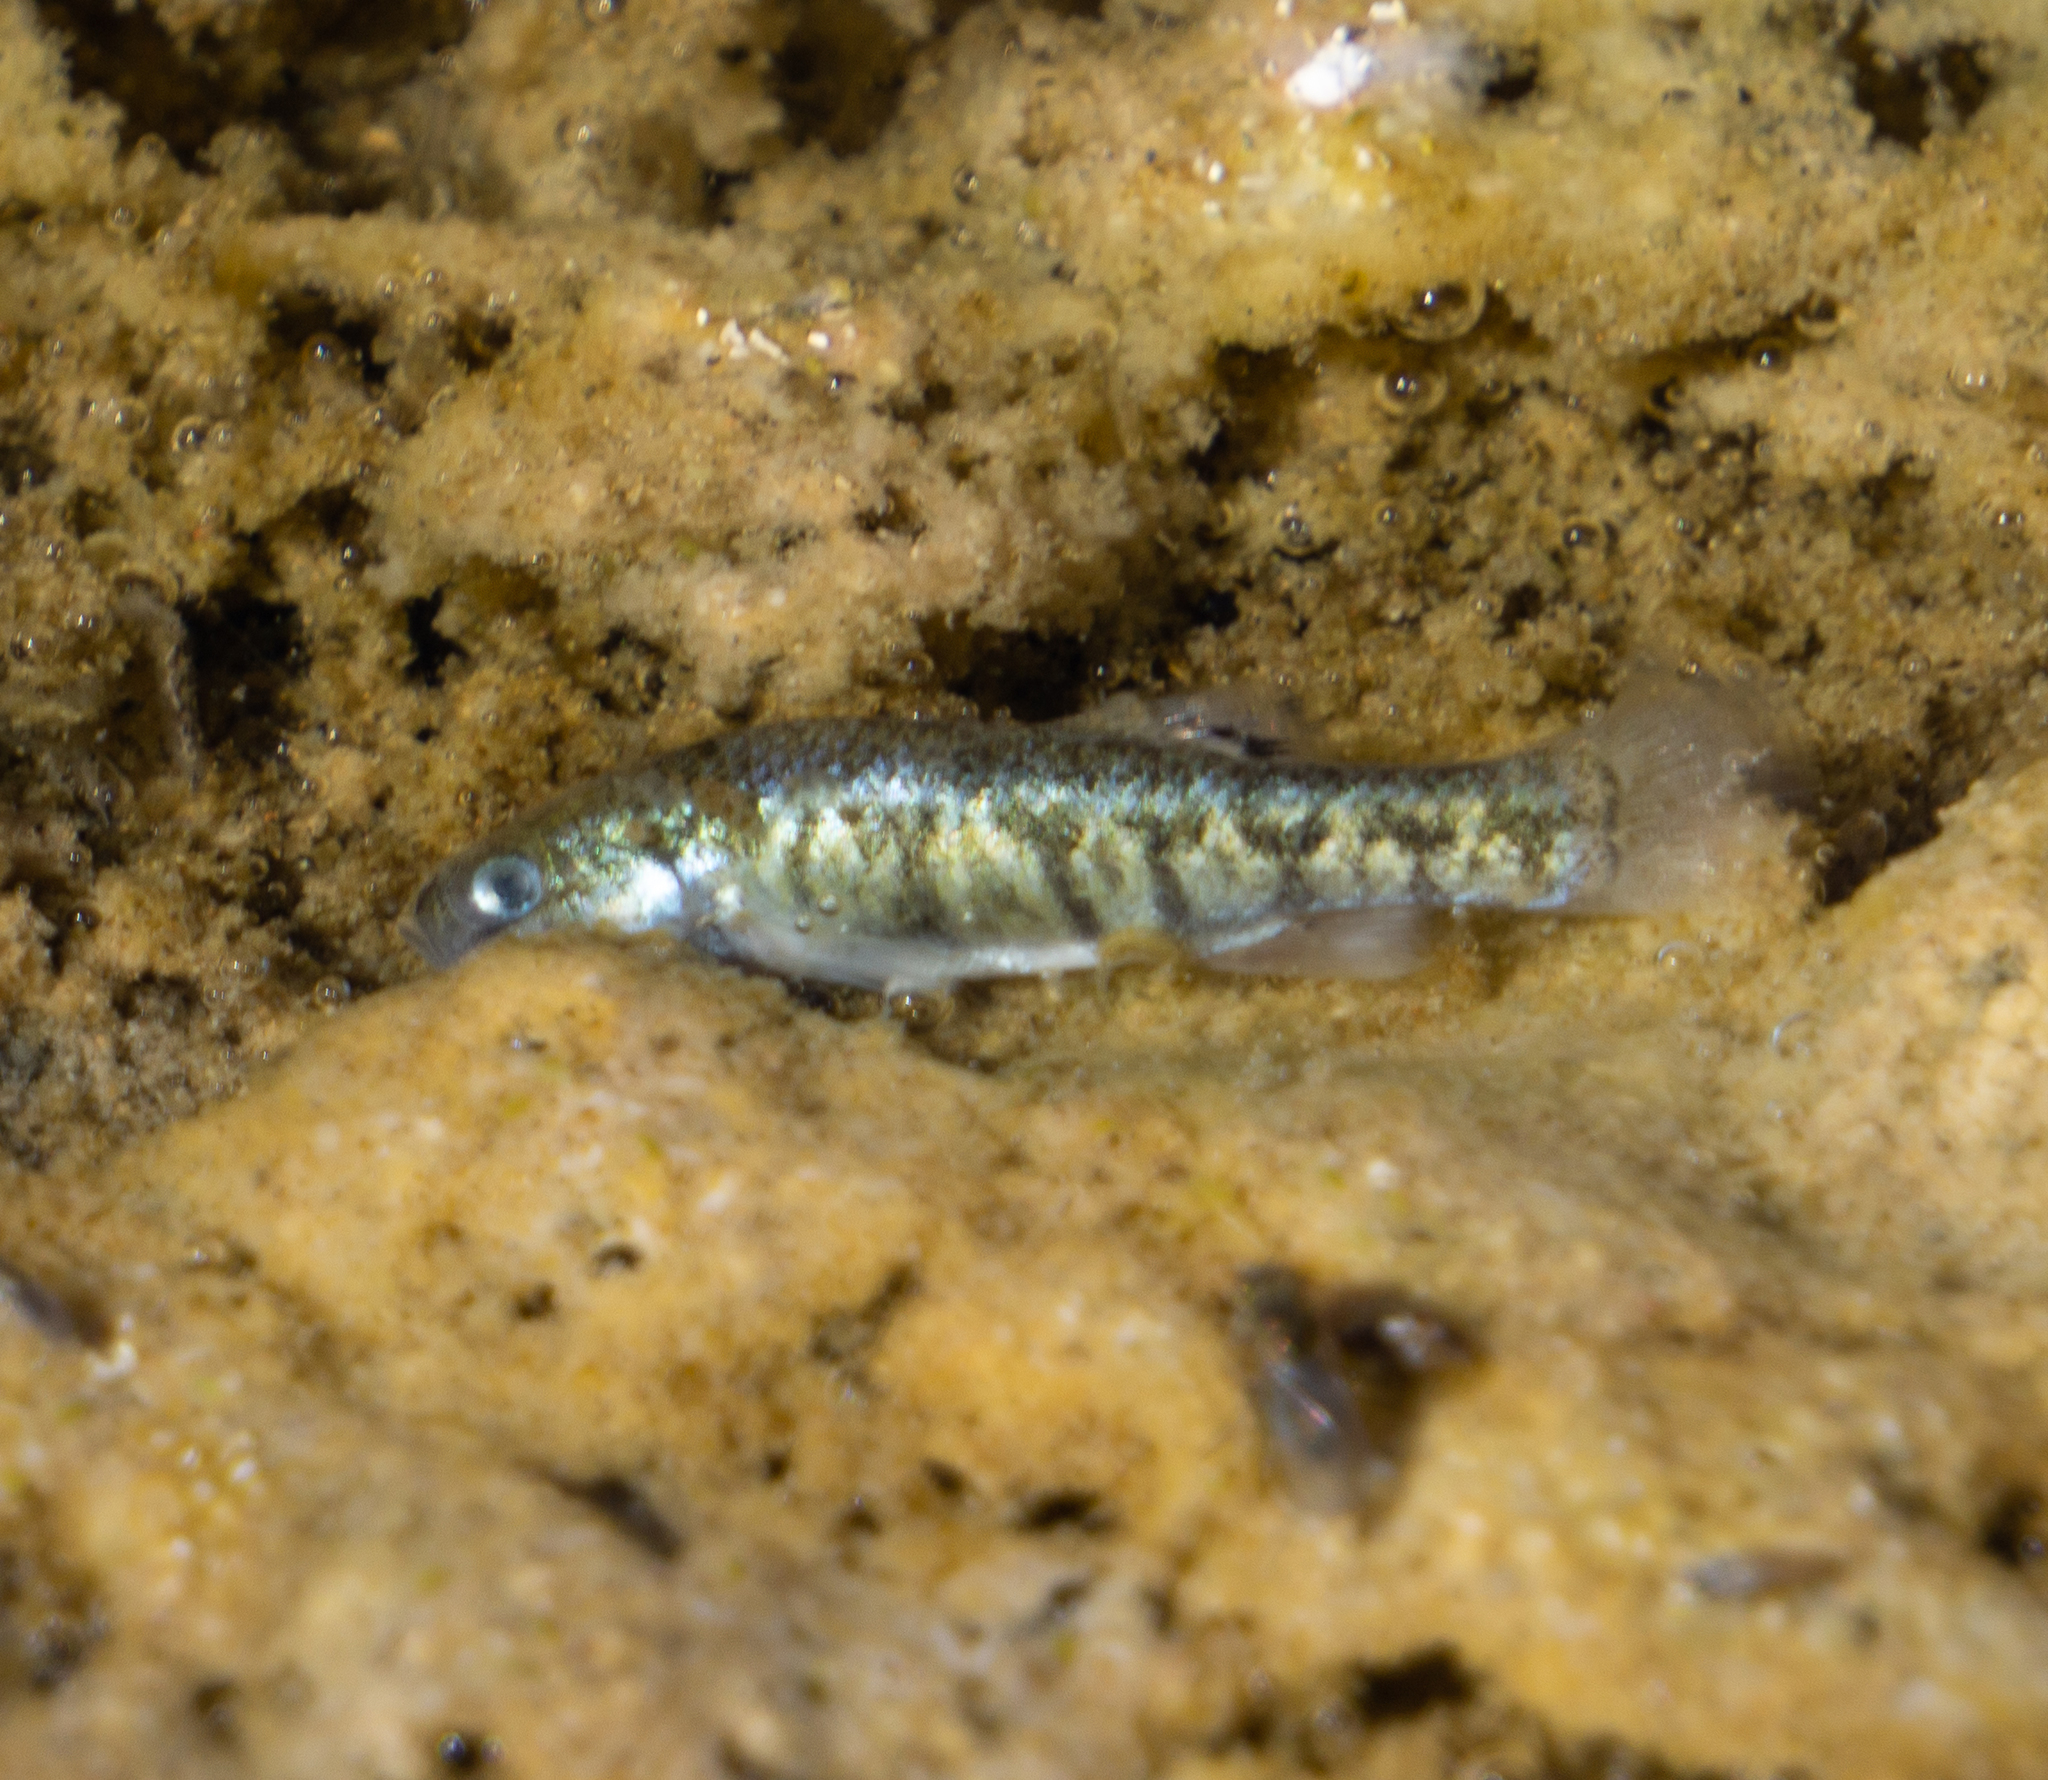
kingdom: Animalia
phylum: Chordata
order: Cyprinodontiformes
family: Cyprinodontidae
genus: Cyprinodon
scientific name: Cyprinodon salinus
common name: Cottonball marsh pupfish
